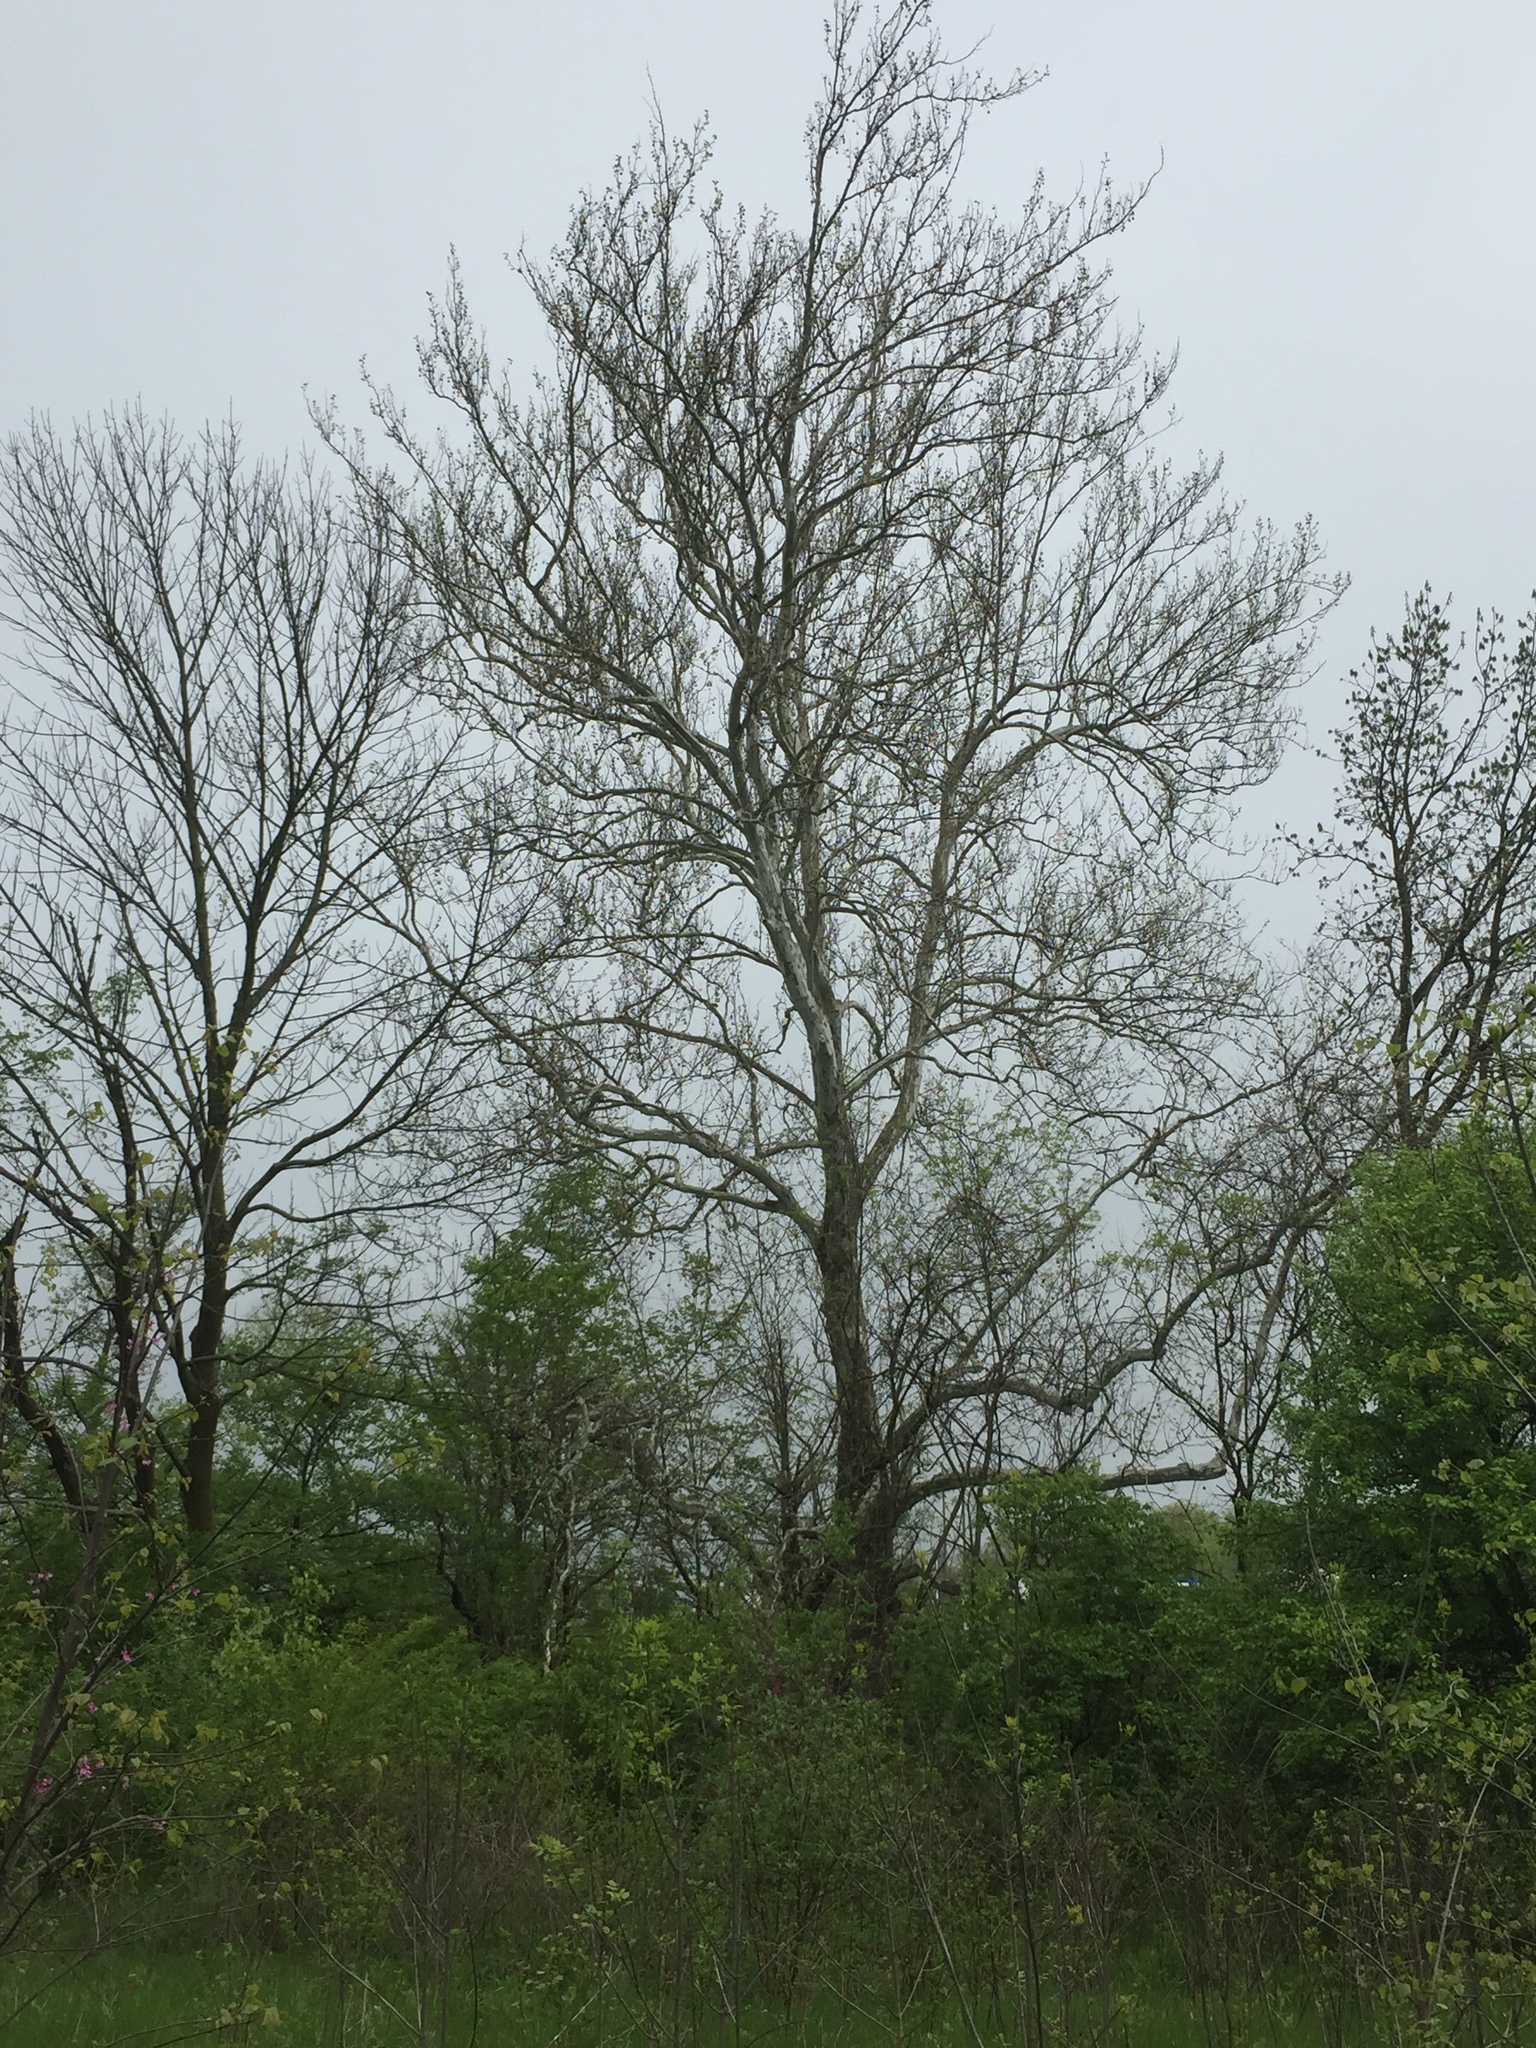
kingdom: Plantae
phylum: Tracheophyta
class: Magnoliopsida
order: Proteales
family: Platanaceae
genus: Platanus
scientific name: Platanus occidentalis
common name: American sycamore
